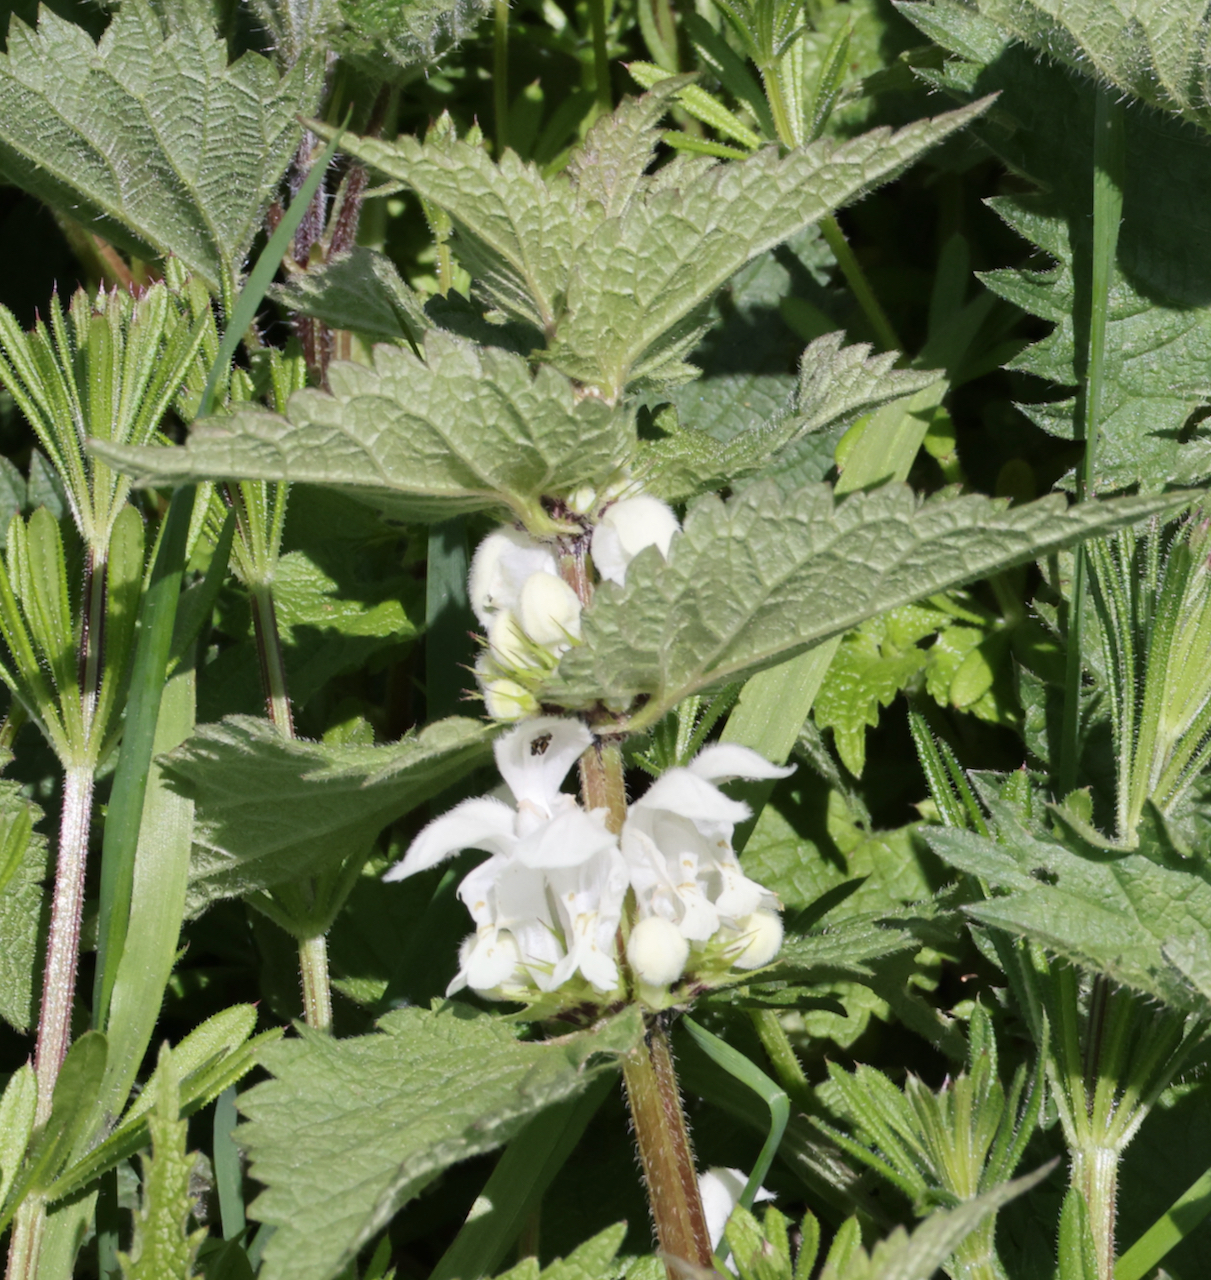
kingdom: Plantae
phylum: Tracheophyta
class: Magnoliopsida
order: Lamiales
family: Lamiaceae
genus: Lamium
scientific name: Lamium album
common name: White dead-nettle
